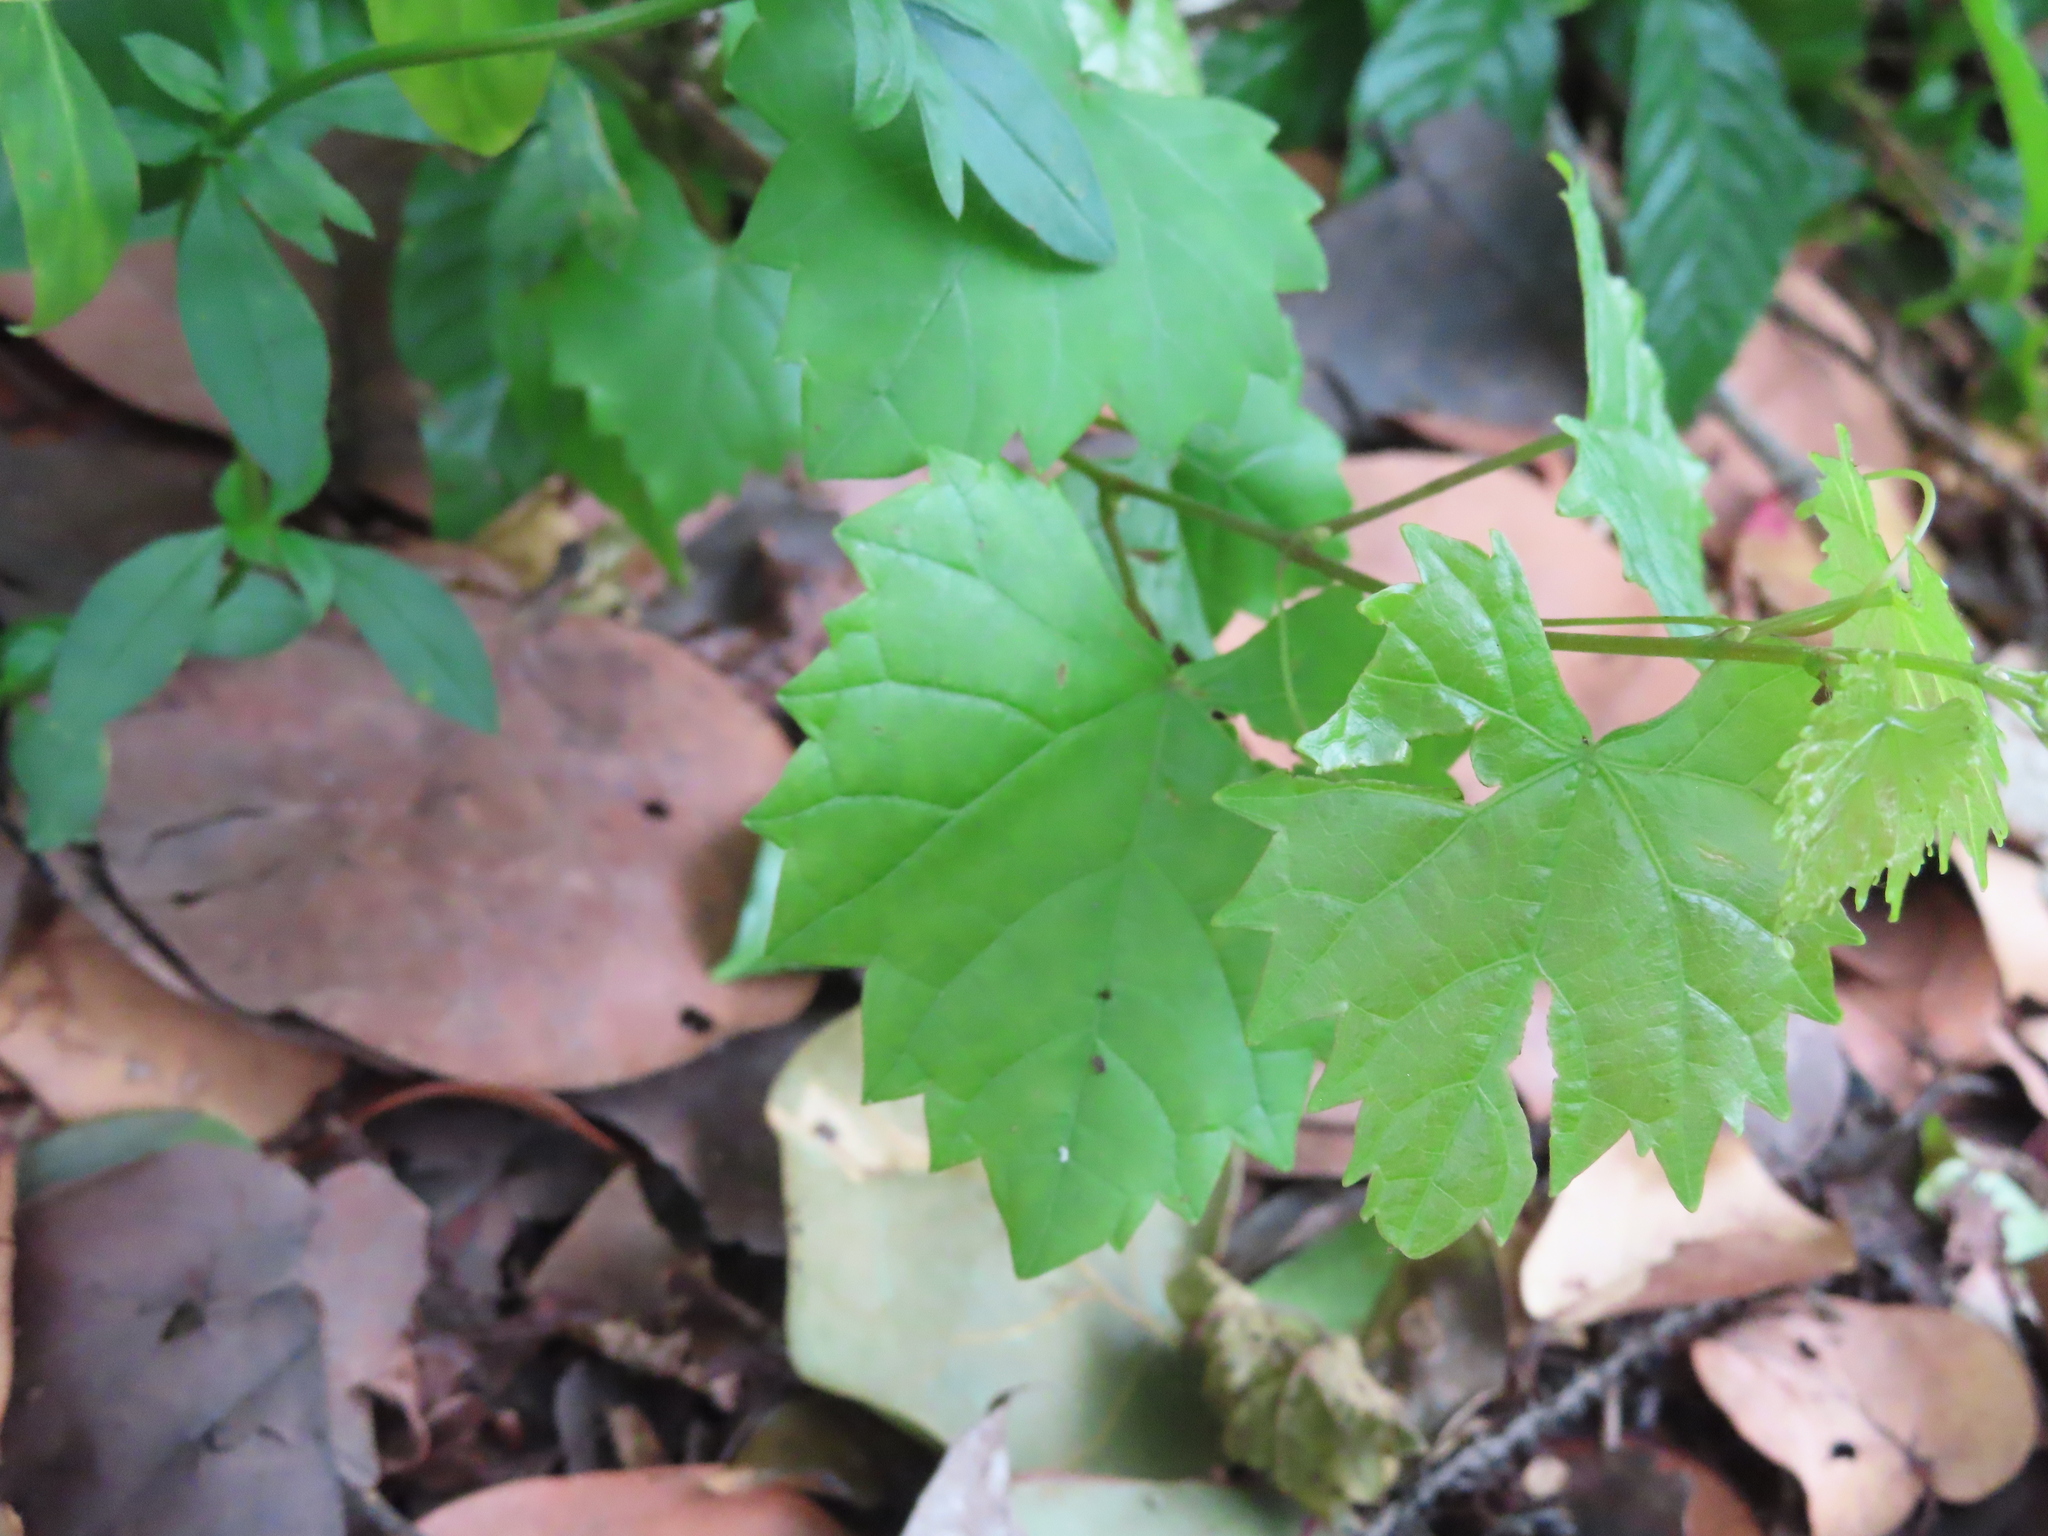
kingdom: Plantae
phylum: Tracheophyta
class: Magnoliopsida
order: Vitales
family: Vitaceae
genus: Vitis
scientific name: Vitis rotundifolia
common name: Muscadine grape
